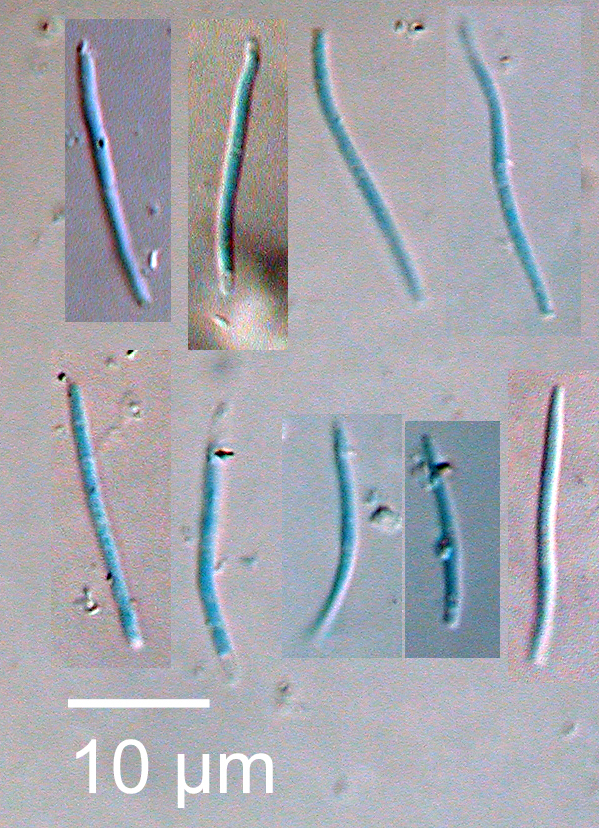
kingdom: Fungi
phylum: Ascomycota
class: Dothideomycetes
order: Mycosphaerellales
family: Mycosphaerellaceae
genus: Septoria
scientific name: Septoria exotica
